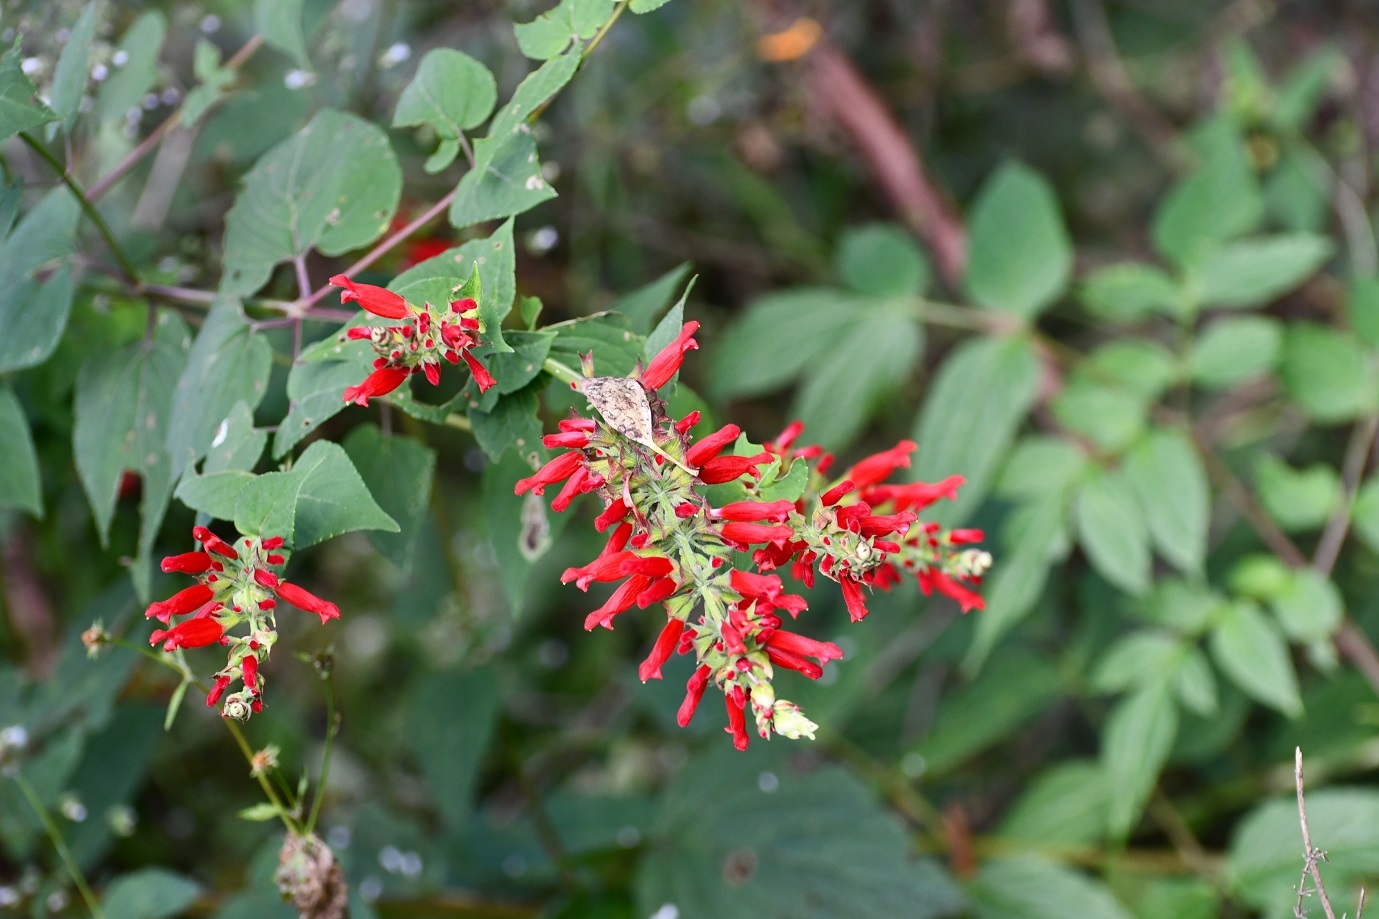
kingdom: Plantae
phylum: Tracheophyta
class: Magnoliopsida
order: Lamiales
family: Lamiaceae
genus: Salvia
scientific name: Salvia holwayi
